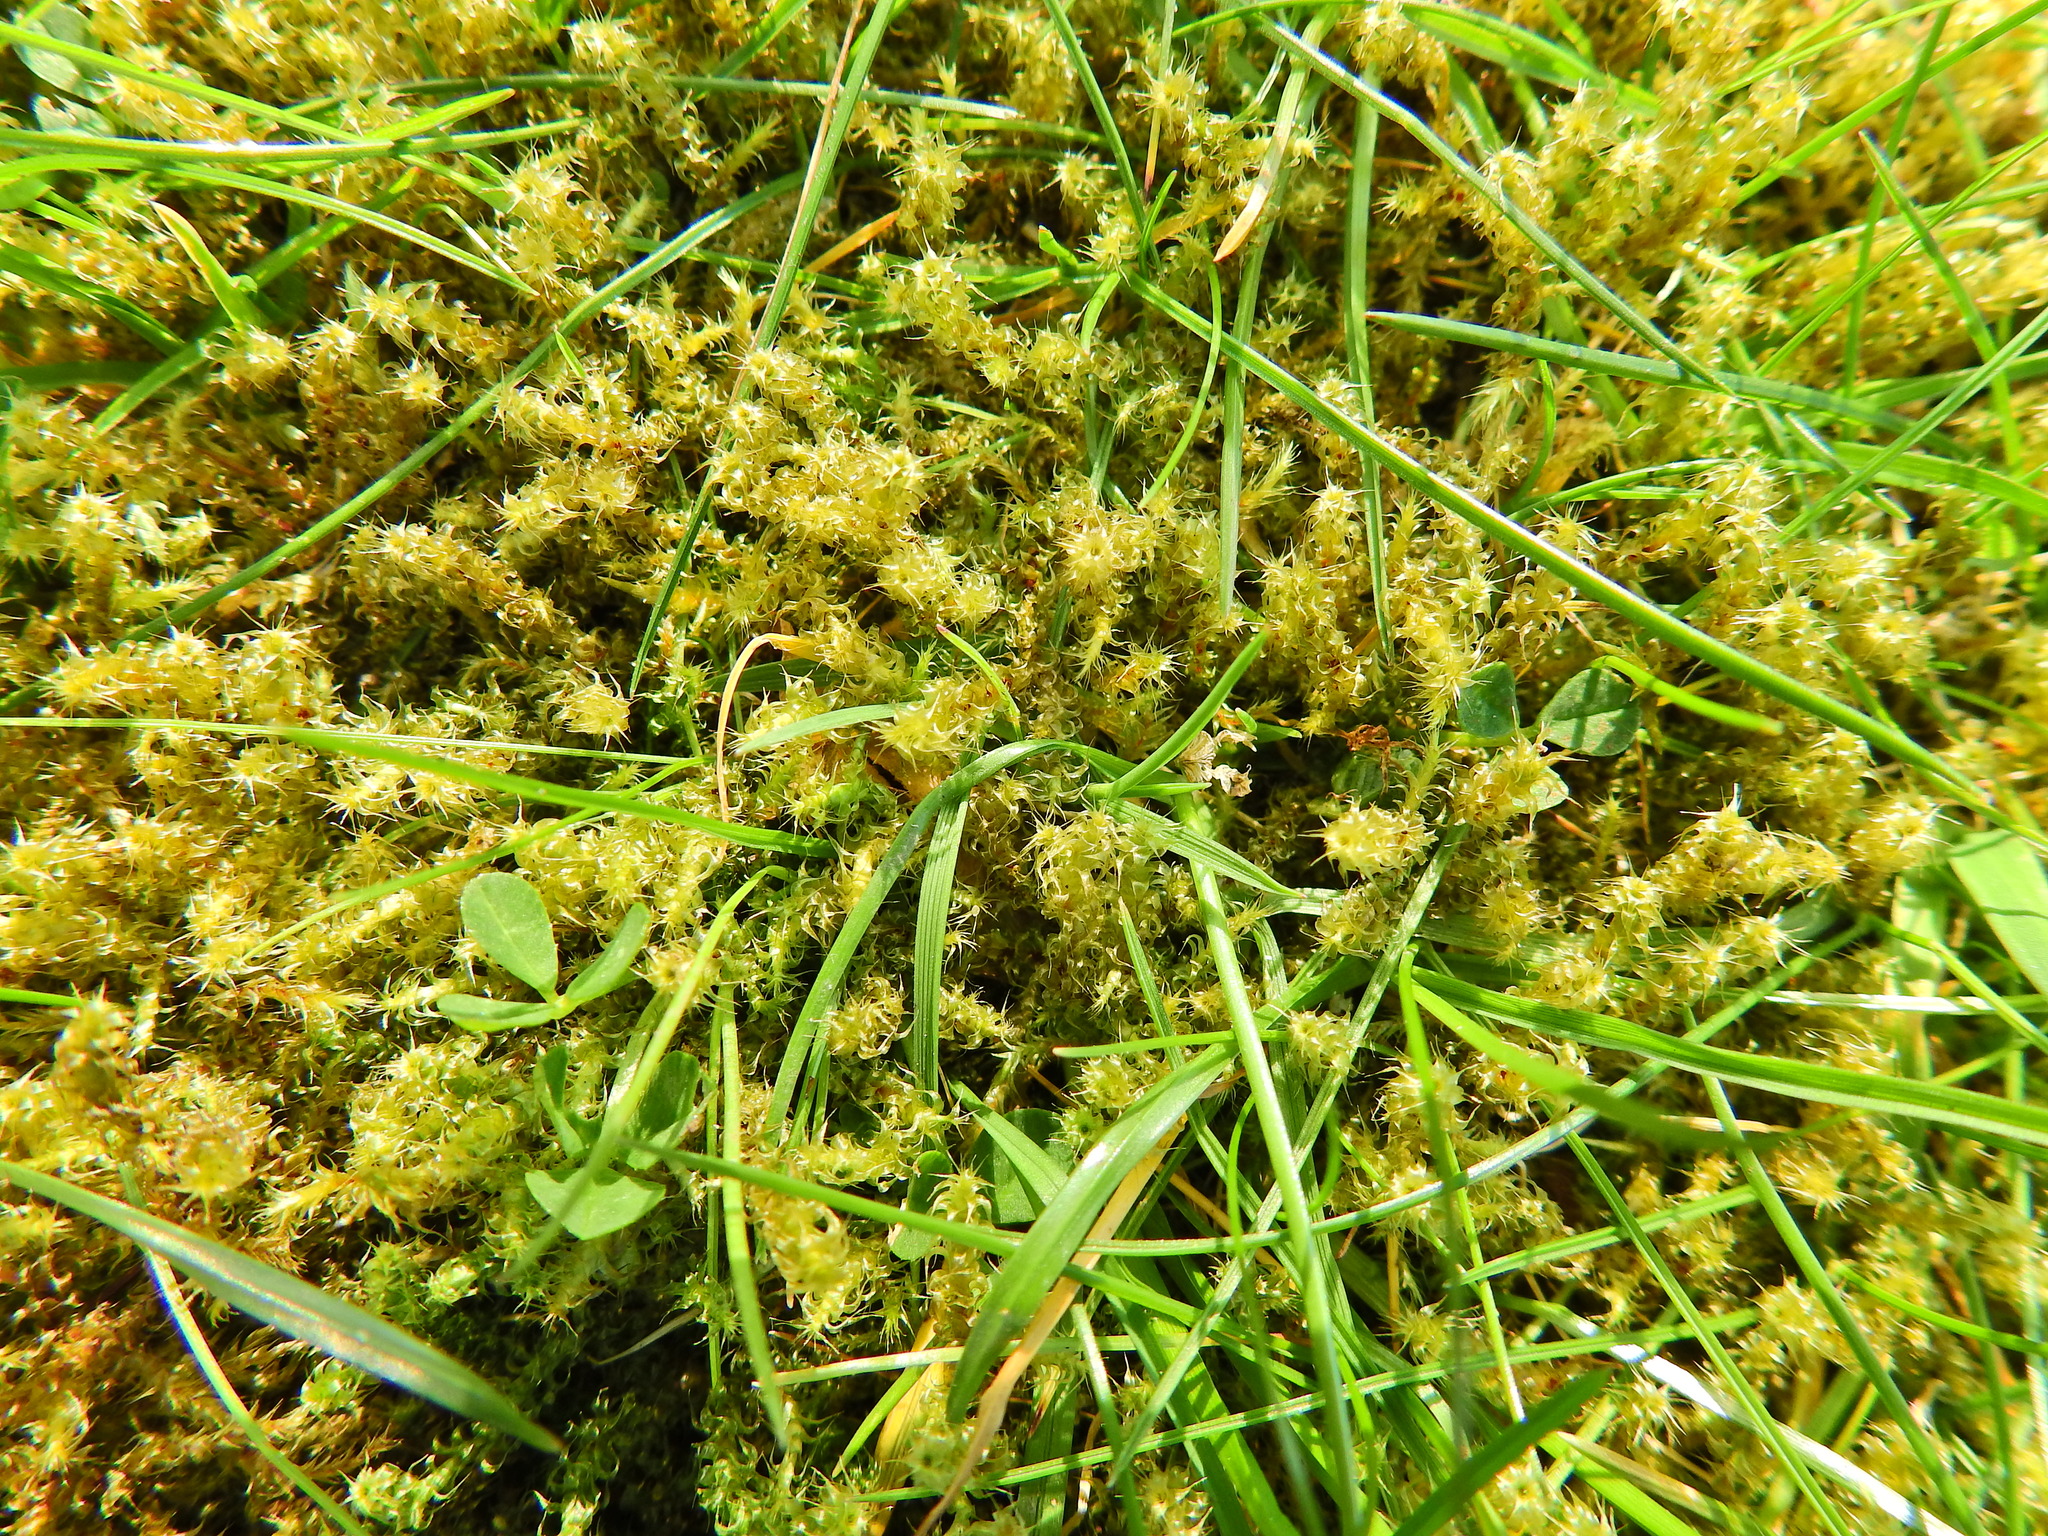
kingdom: Plantae
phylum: Bryophyta
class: Bryopsida
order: Hypnales
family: Hylocomiaceae
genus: Rhytidiadelphus
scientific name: Rhytidiadelphus squarrosus
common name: Springy turf-moss
